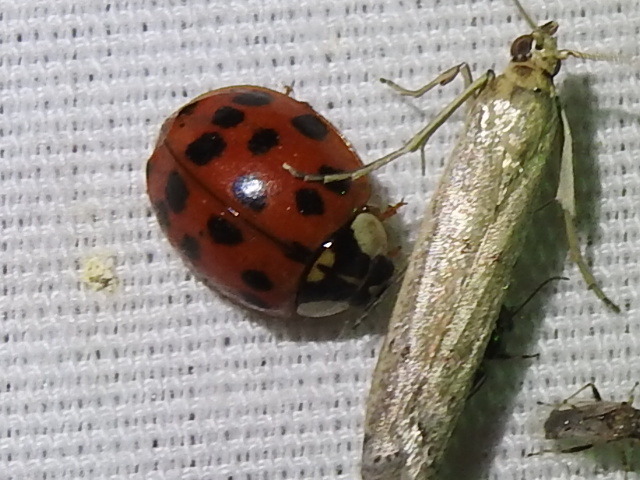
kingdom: Animalia
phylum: Arthropoda
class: Insecta
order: Coleoptera
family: Coccinellidae
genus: Harmonia
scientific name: Harmonia axyridis
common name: Harlequin ladybird
